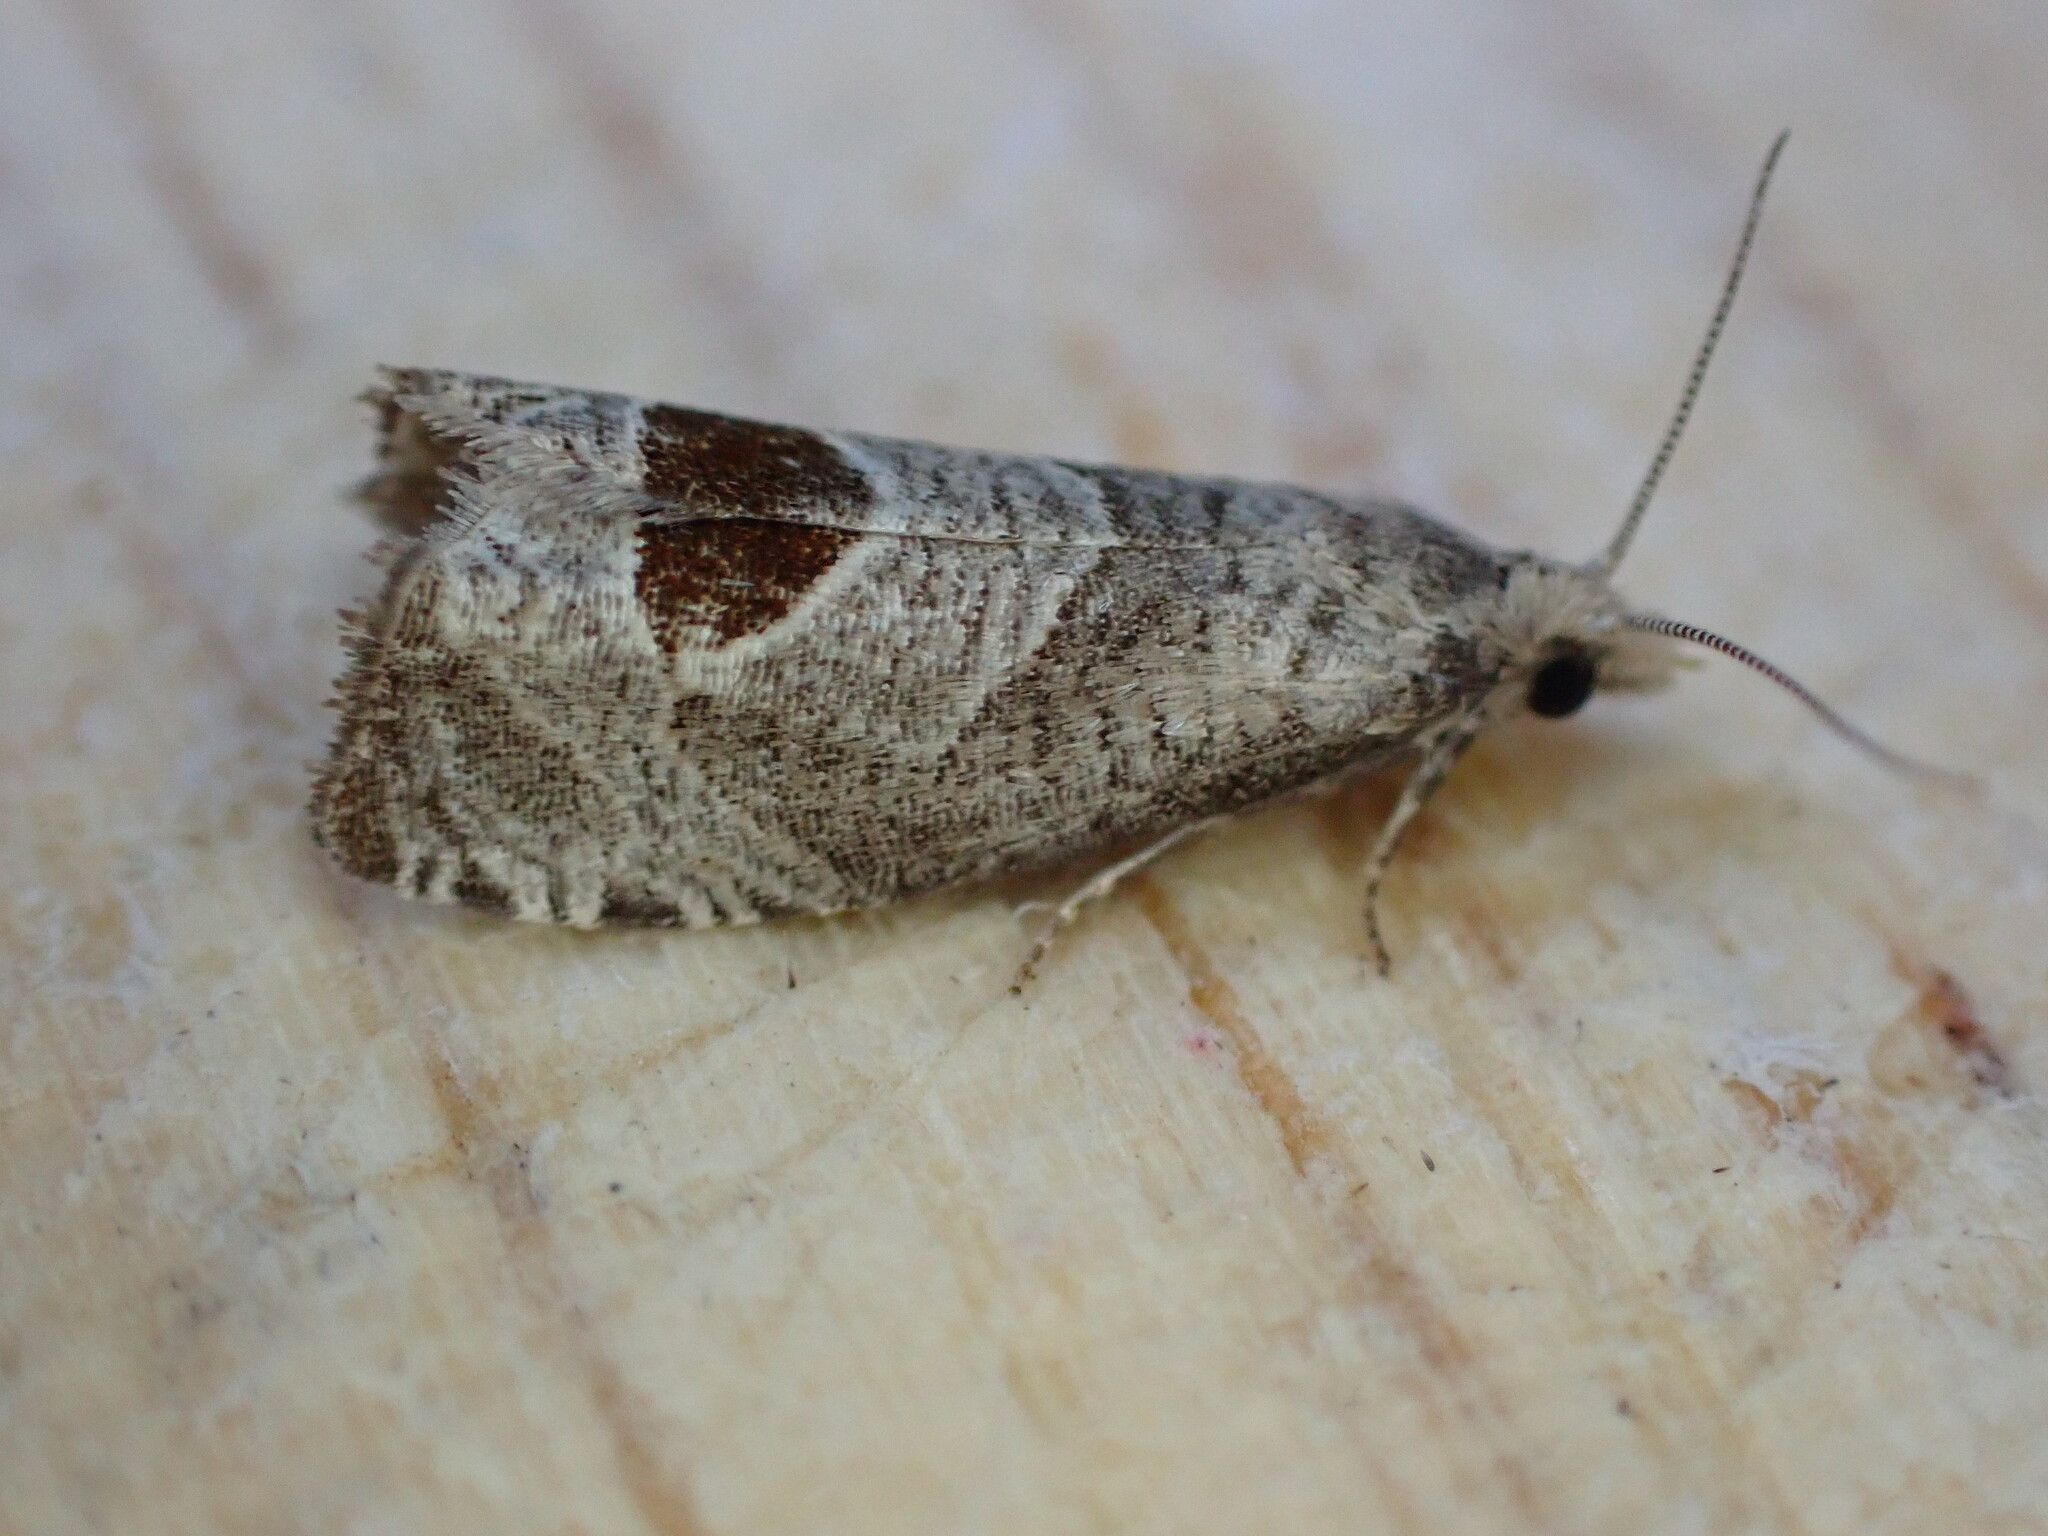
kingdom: Animalia
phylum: Arthropoda
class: Insecta
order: Lepidoptera
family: Tortricidae
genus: Notocelia
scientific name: Notocelia uddmanniana
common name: Bramble shoot moth
